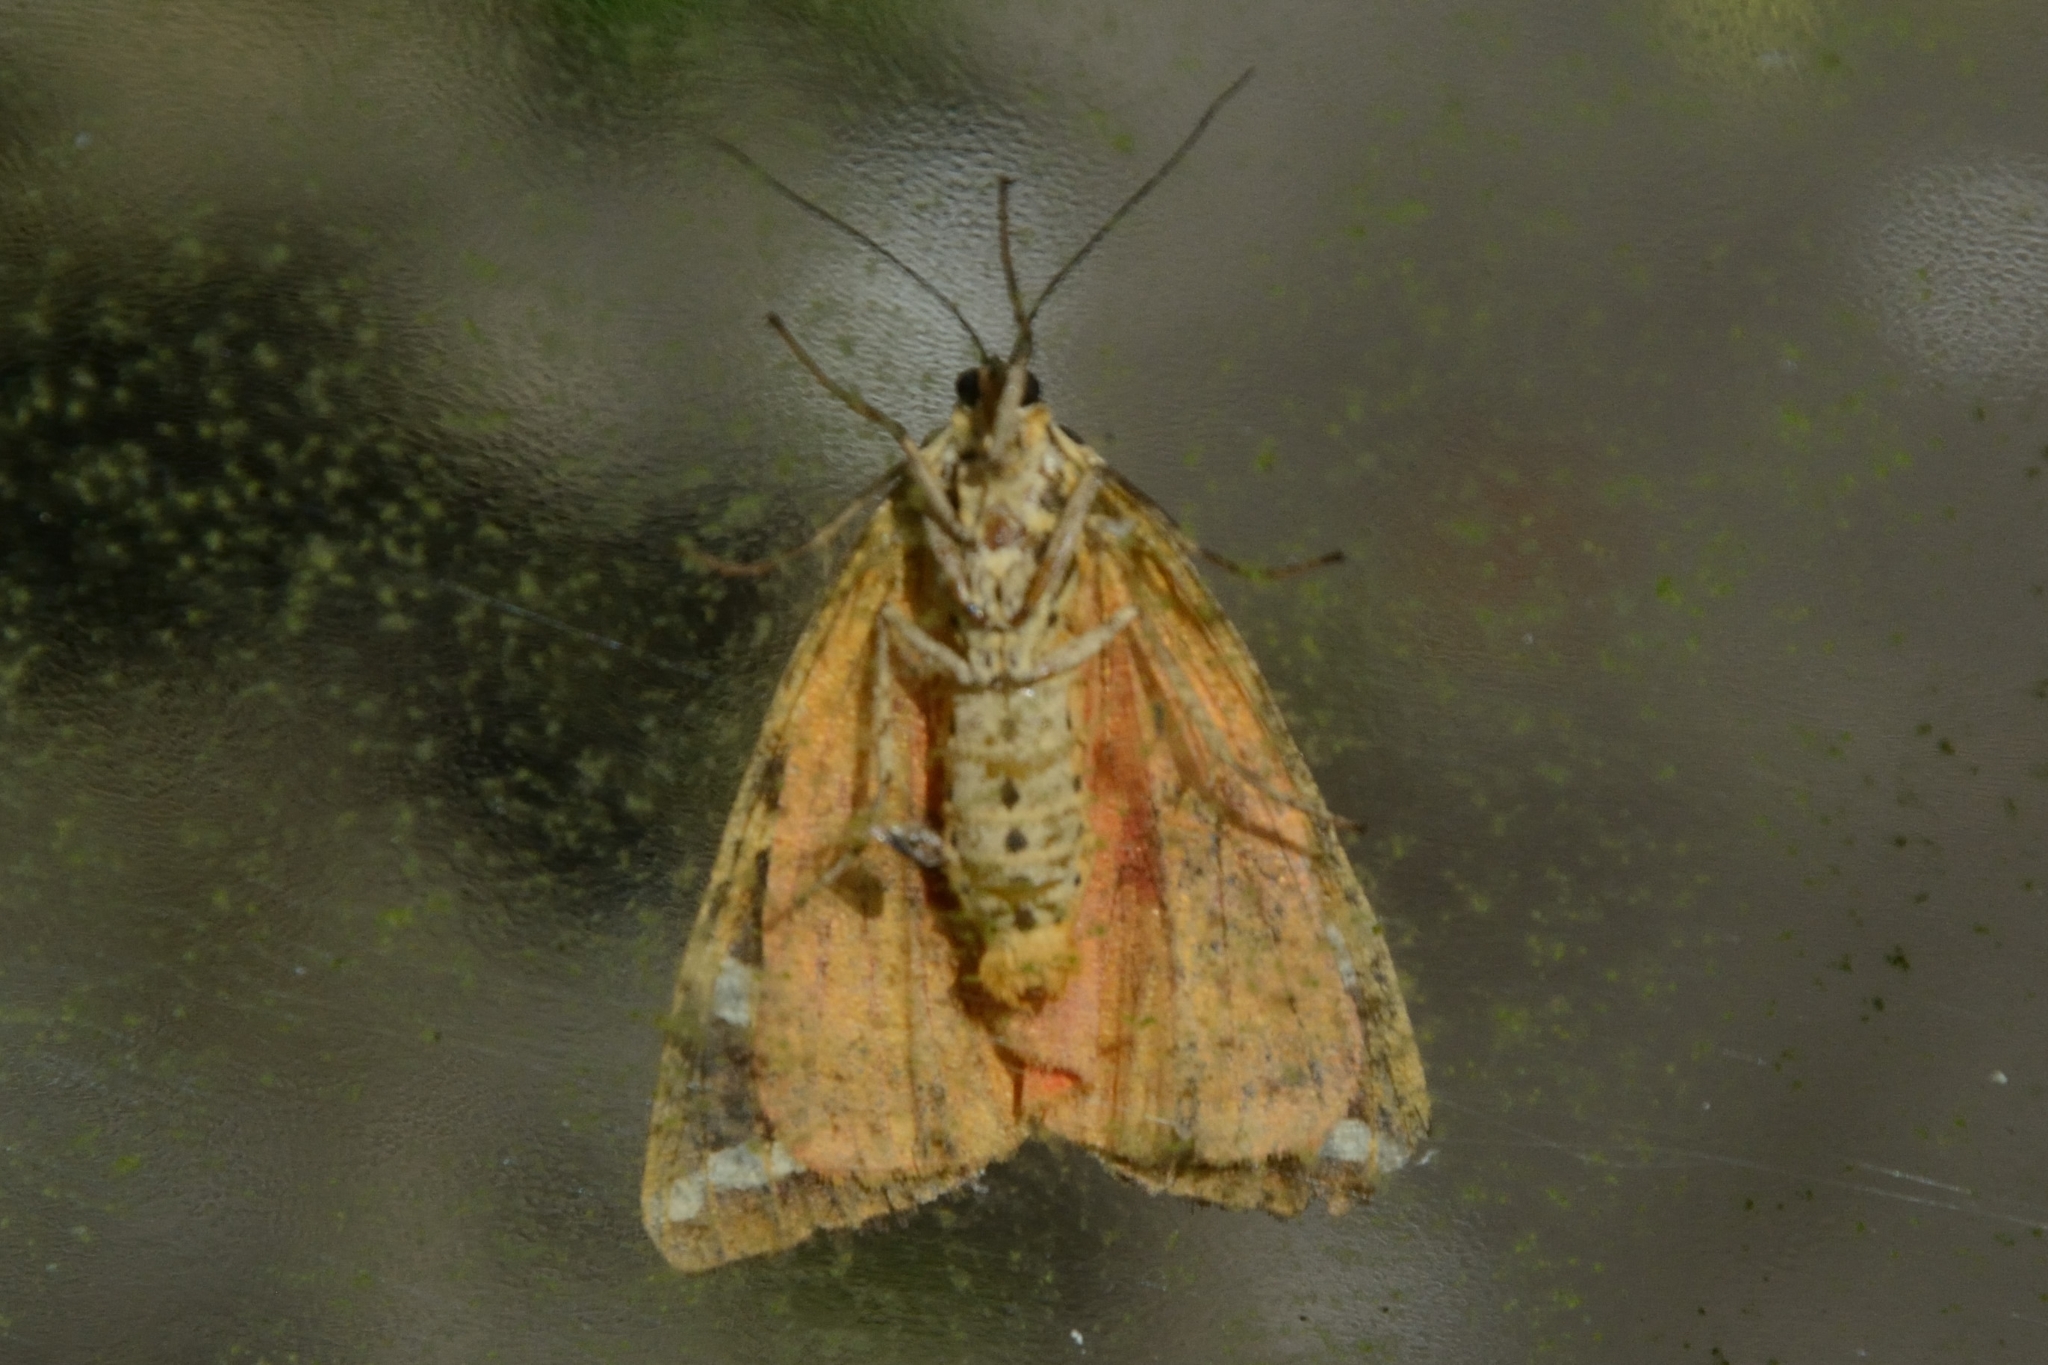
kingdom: Animalia
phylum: Arthropoda
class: Insecta
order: Lepidoptera
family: Erebidae
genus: Euplagia
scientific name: Euplagia quadripunctaria
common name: Jersey tiger
